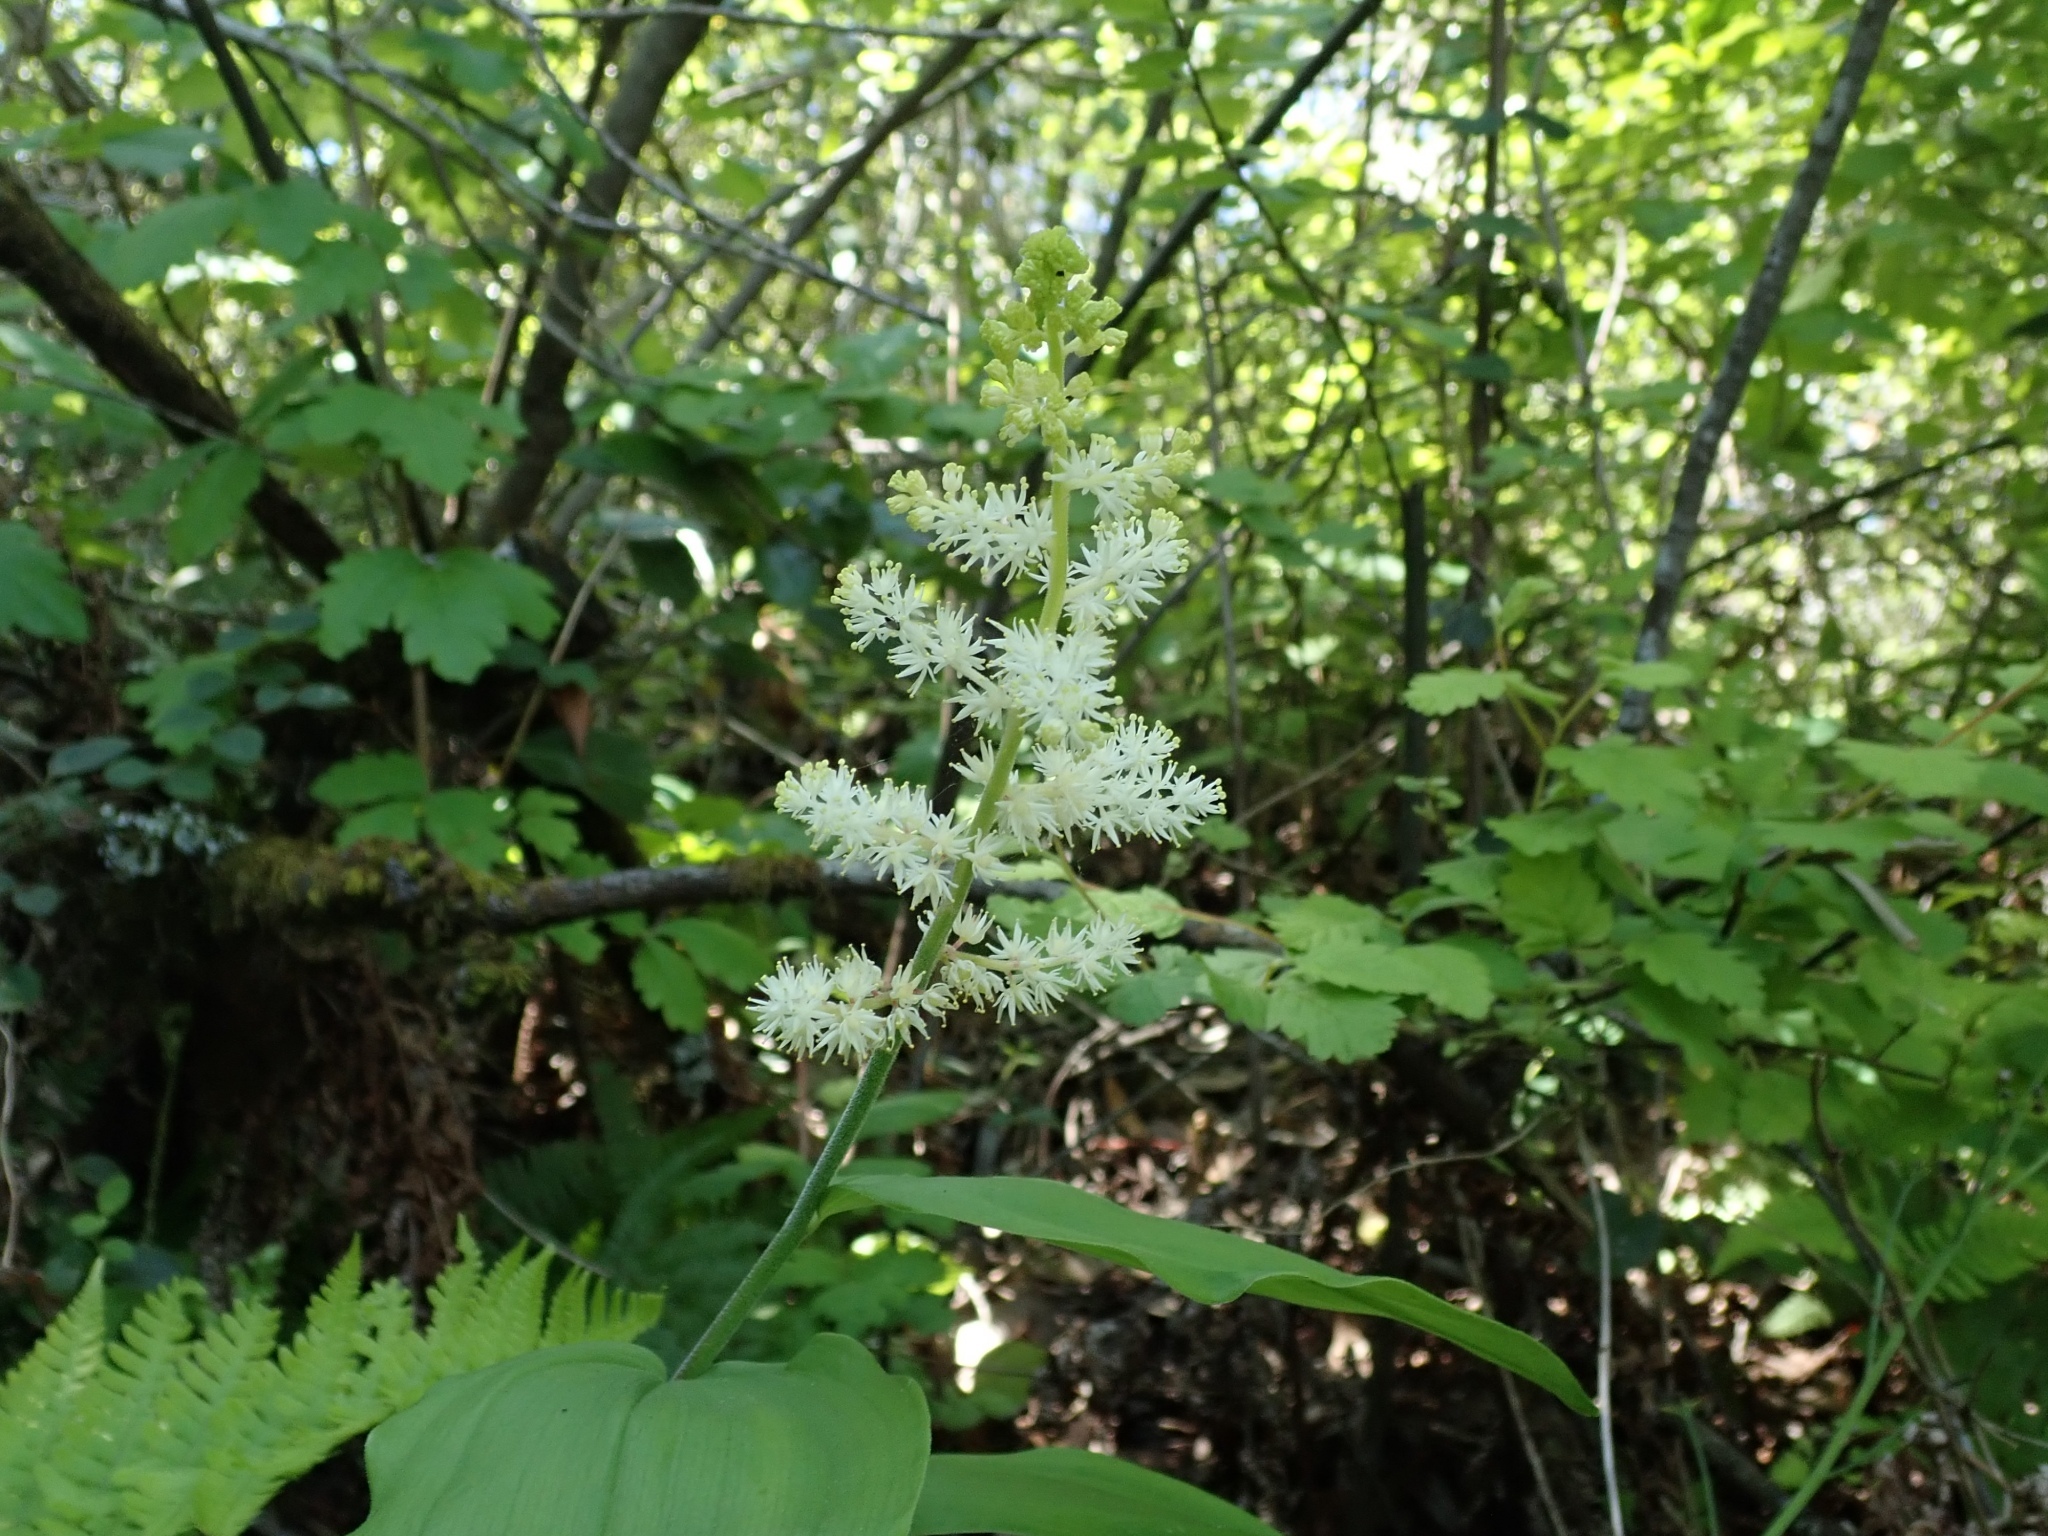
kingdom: Plantae
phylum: Tracheophyta
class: Liliopsida
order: Asparagales
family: Asparagaceae
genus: Maianthemum
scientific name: Maianthemum racemosum
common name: False spikenard
